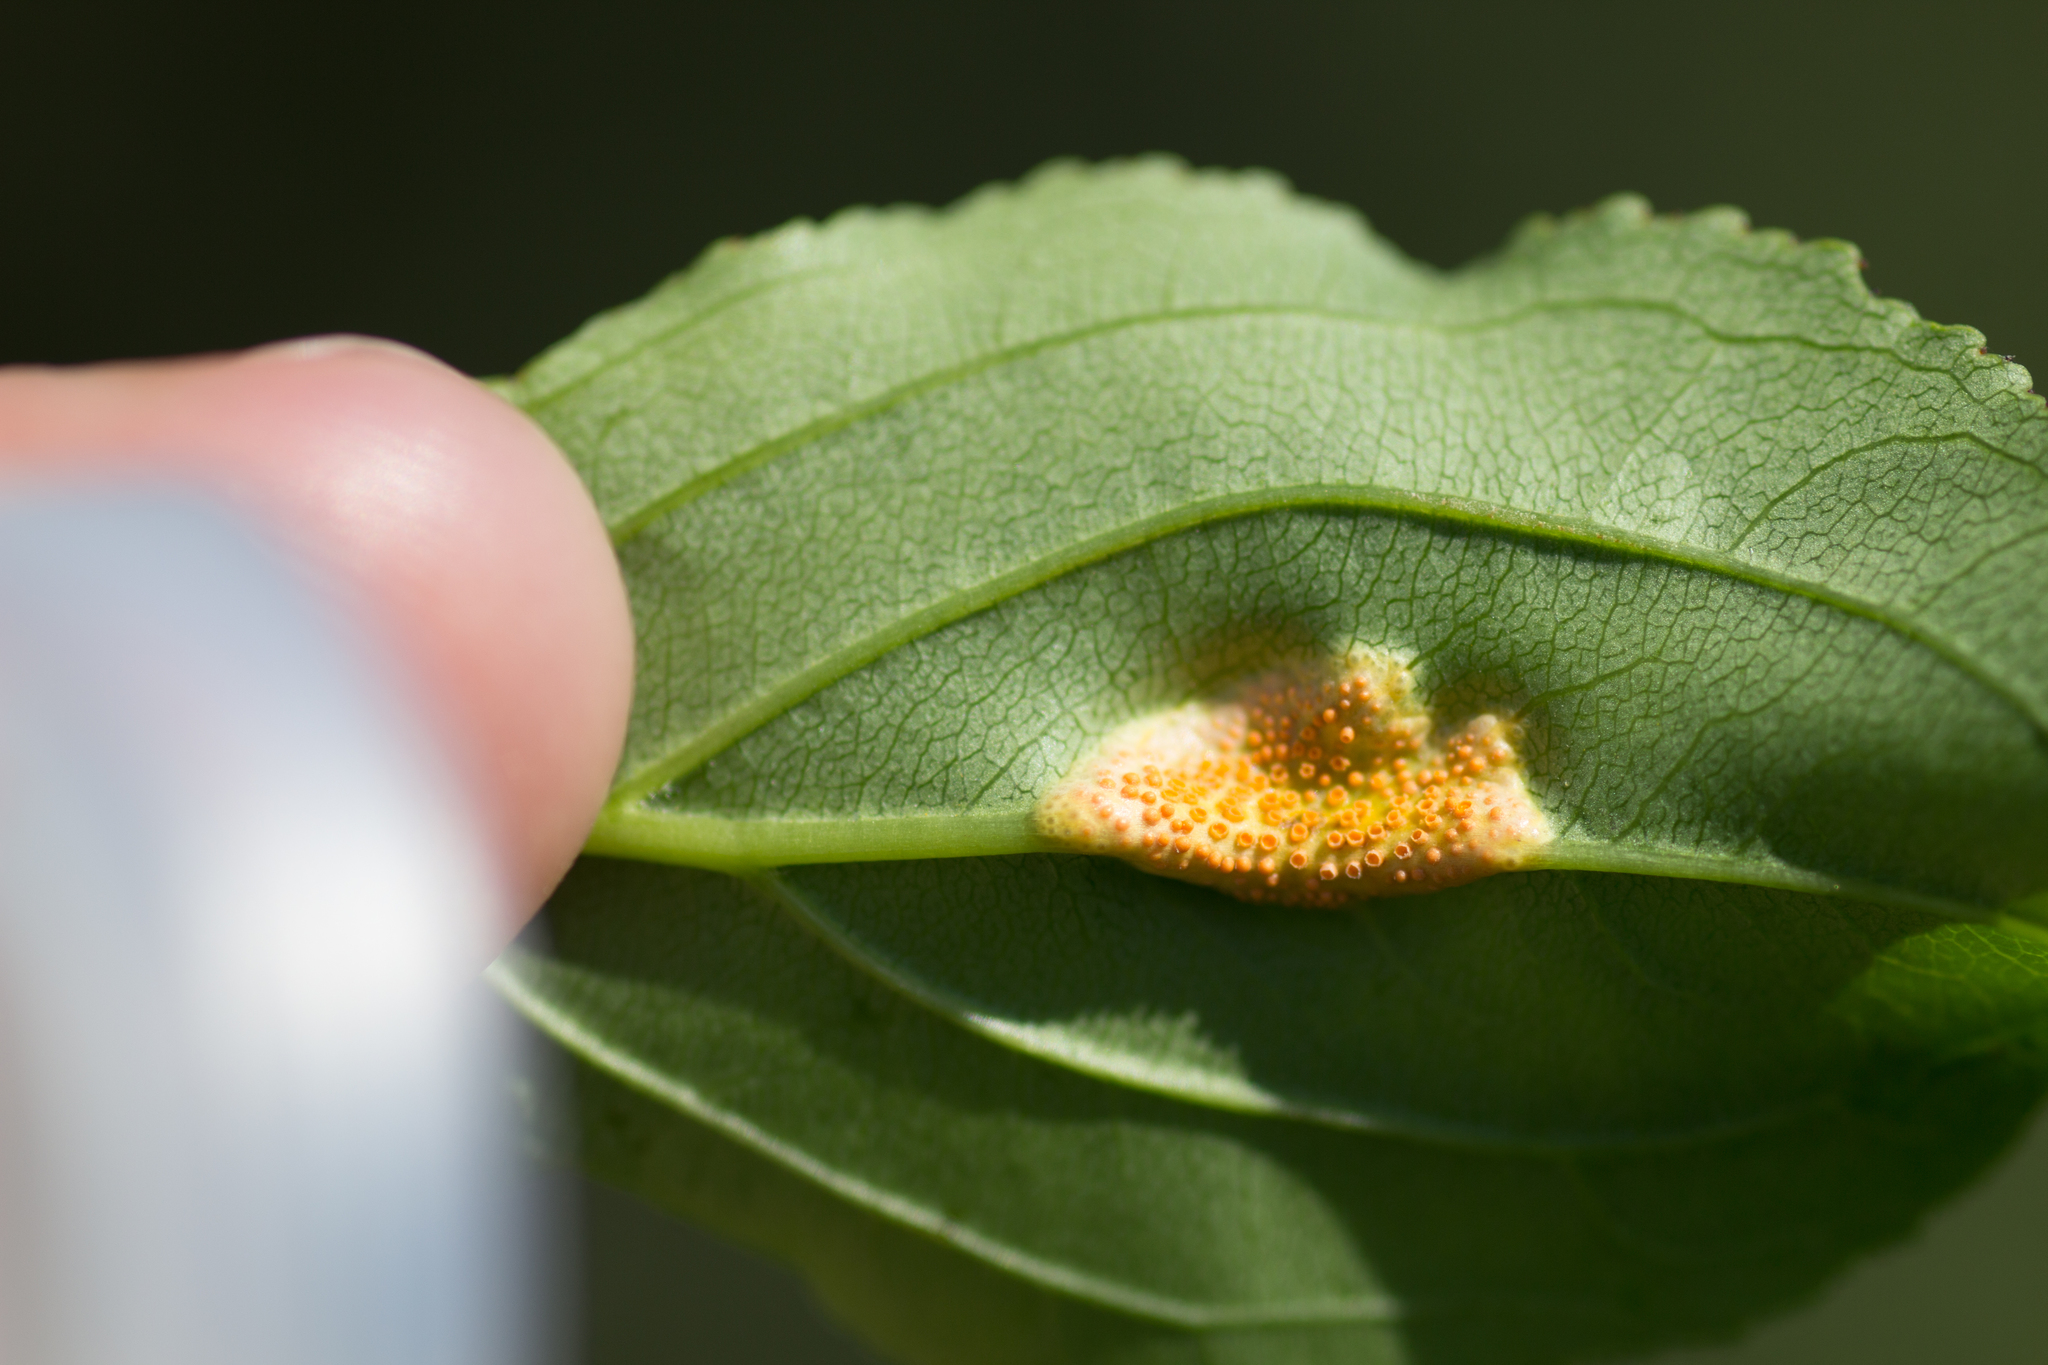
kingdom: Fungi
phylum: Basidiomycota
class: Pucciniomycetes
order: Pucciniales
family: Pucciniaceae
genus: Puccinia
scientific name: Puccinia coronata
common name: Crown rust
